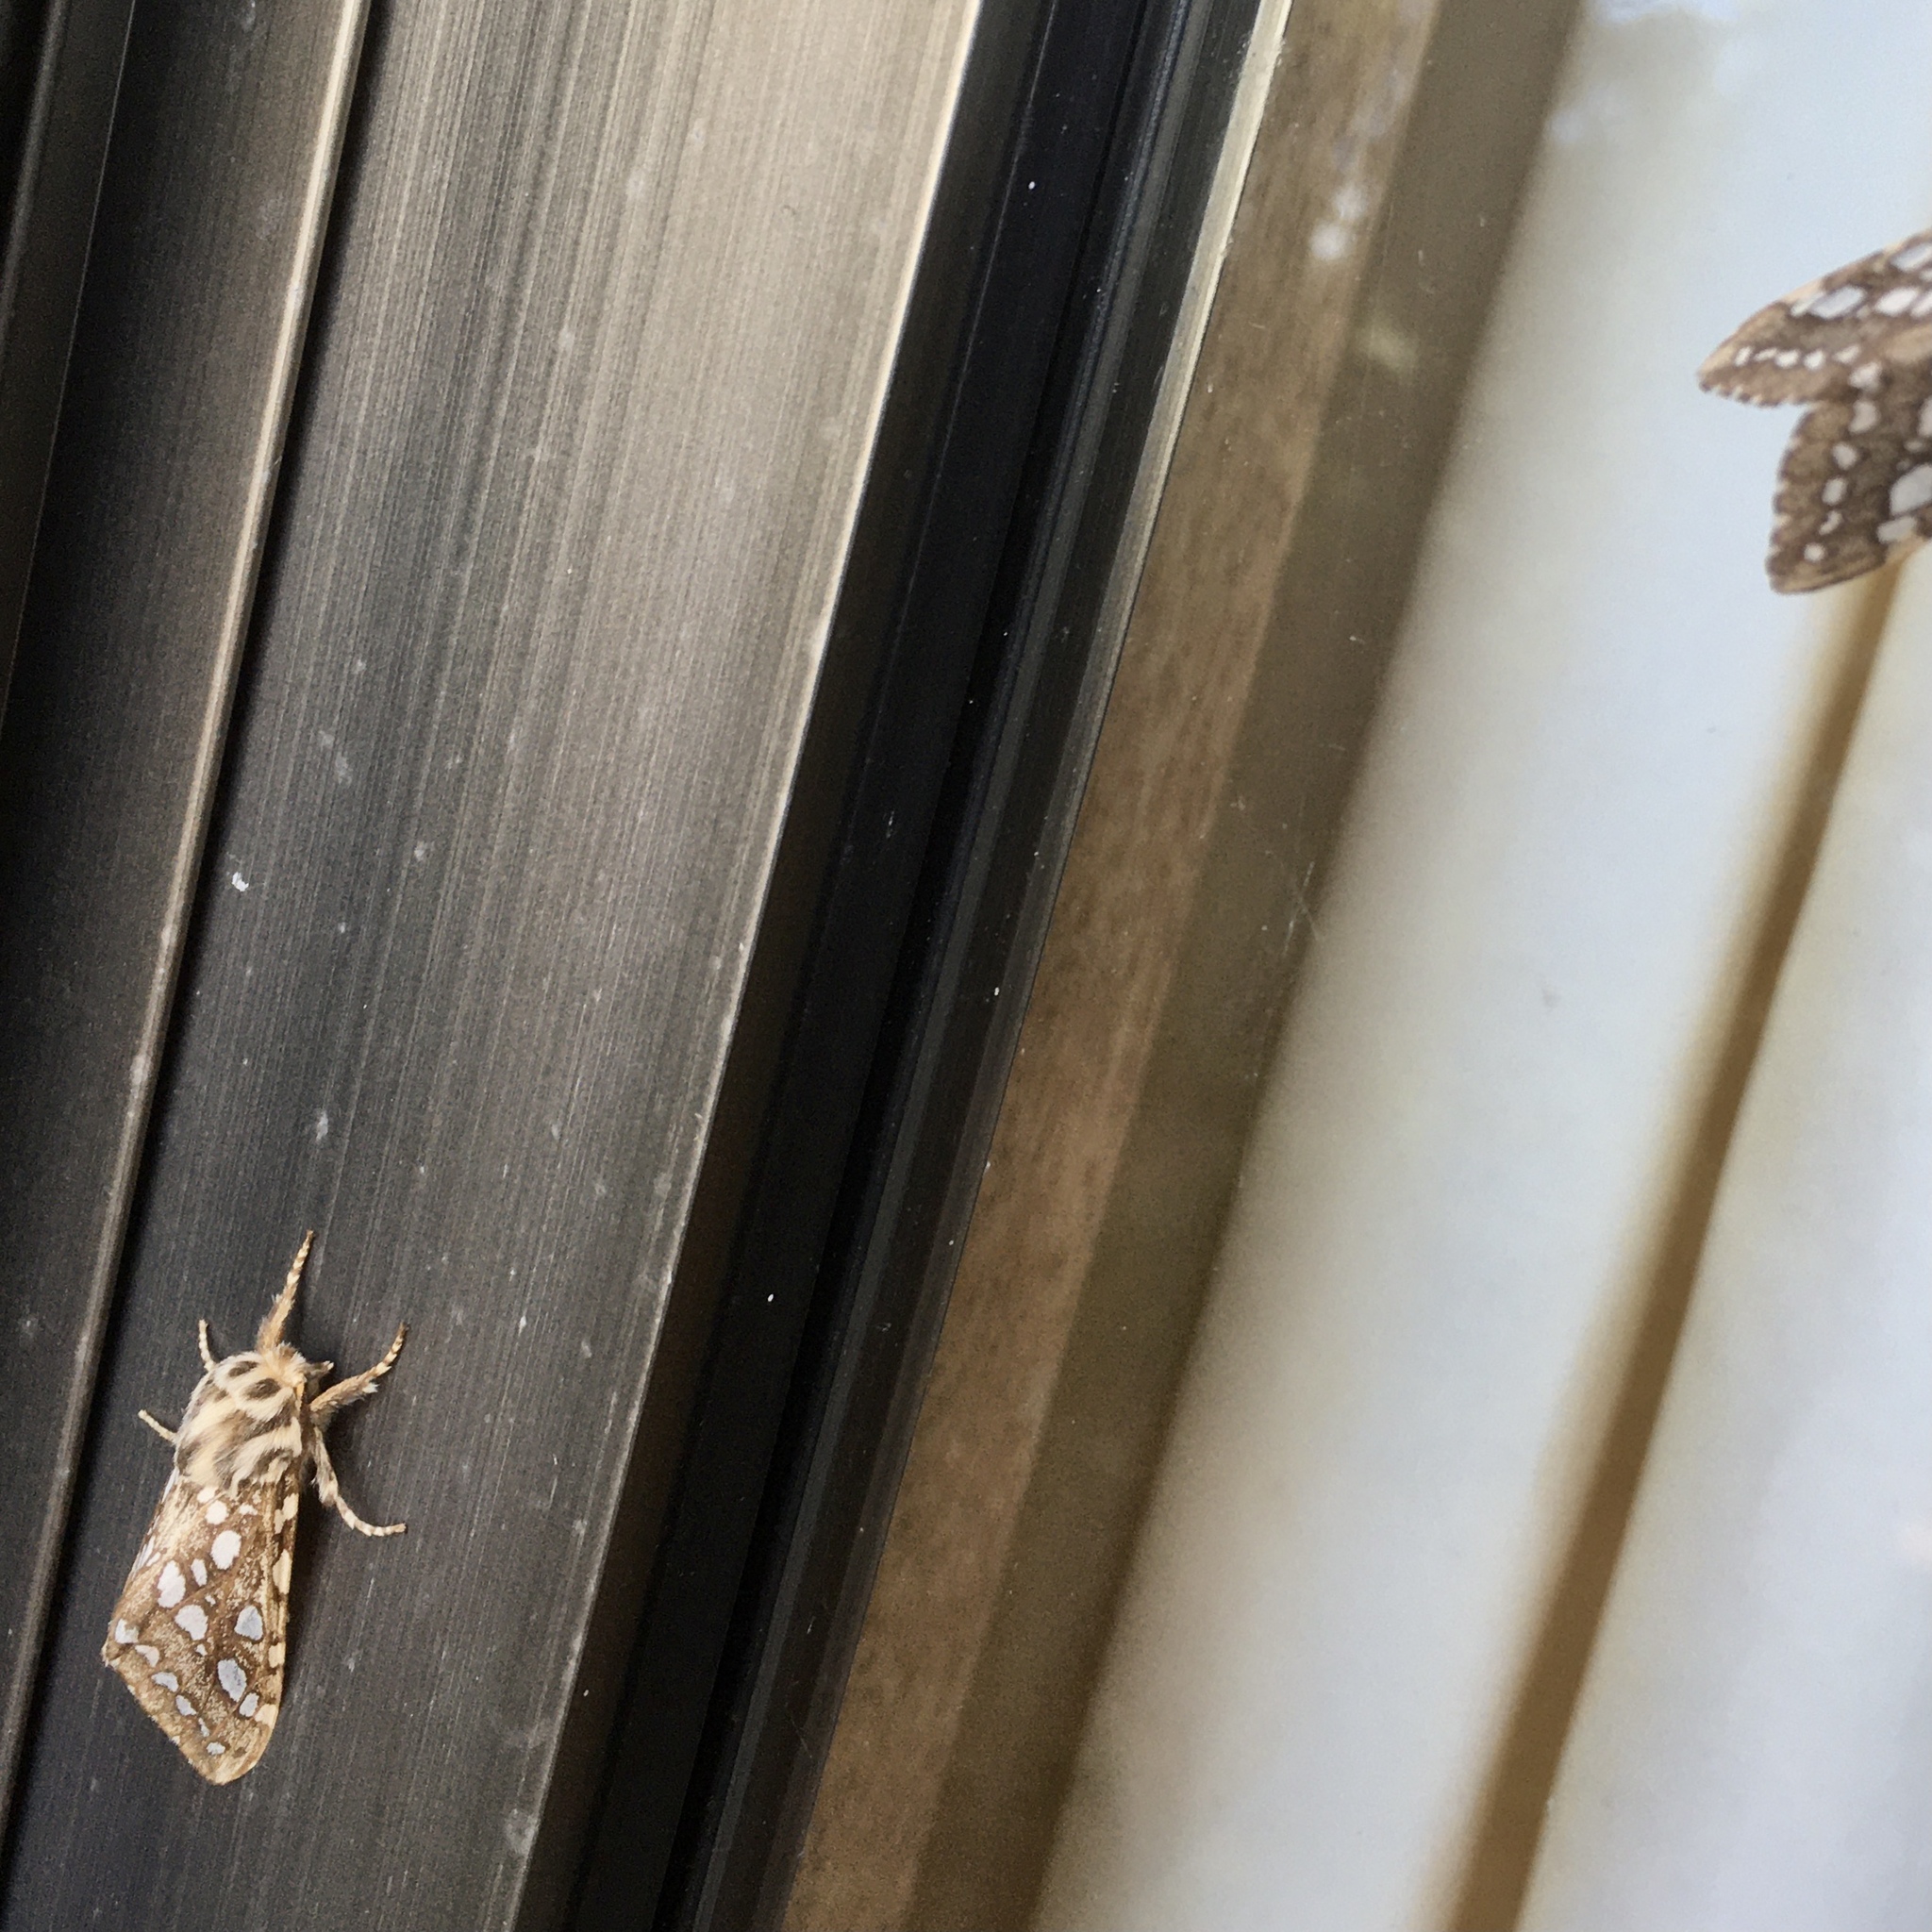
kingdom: Animalia
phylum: Arthropoda
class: Insecta
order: Lepidoptera
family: Erebidae
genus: Lophocampa
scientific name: Lophocampa argentata
